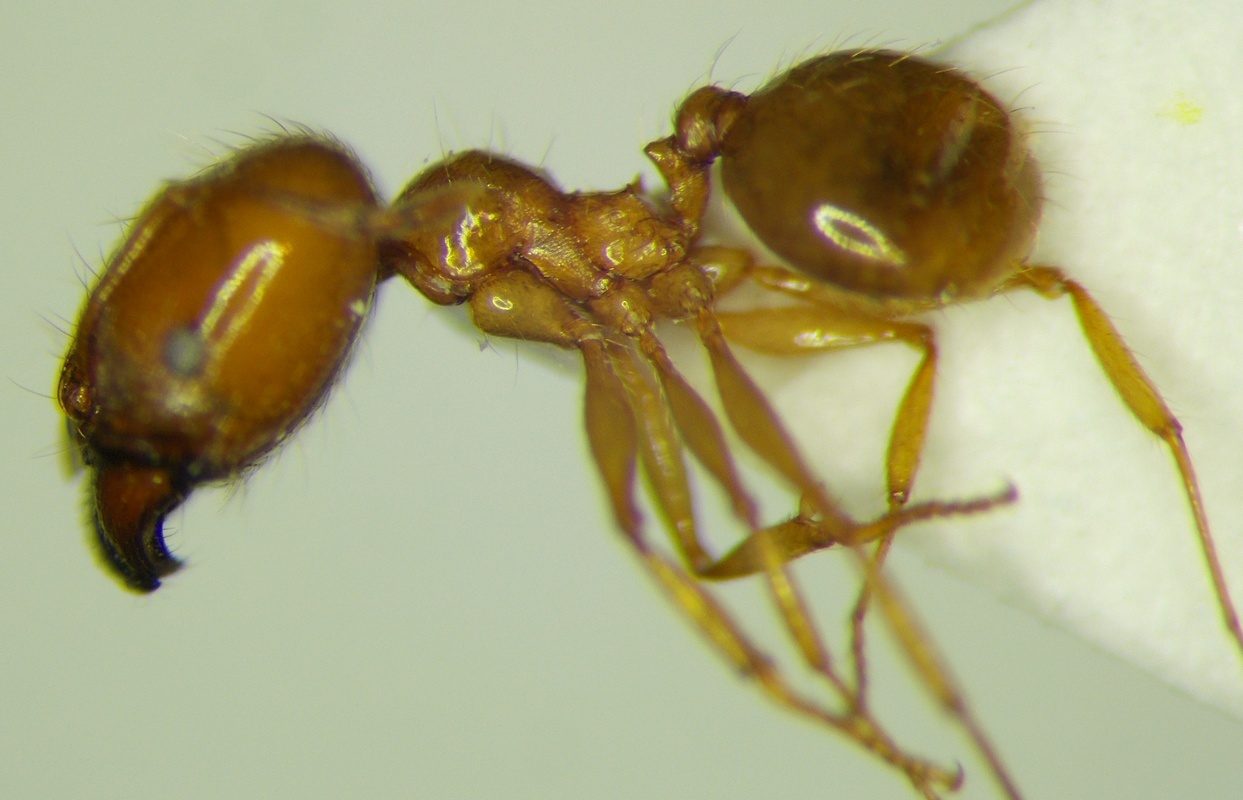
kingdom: Animalia
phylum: Arthropoda
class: Insecta
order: Hymenoptera
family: Formicidae
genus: Pheidole
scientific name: Pheidole pallidula
